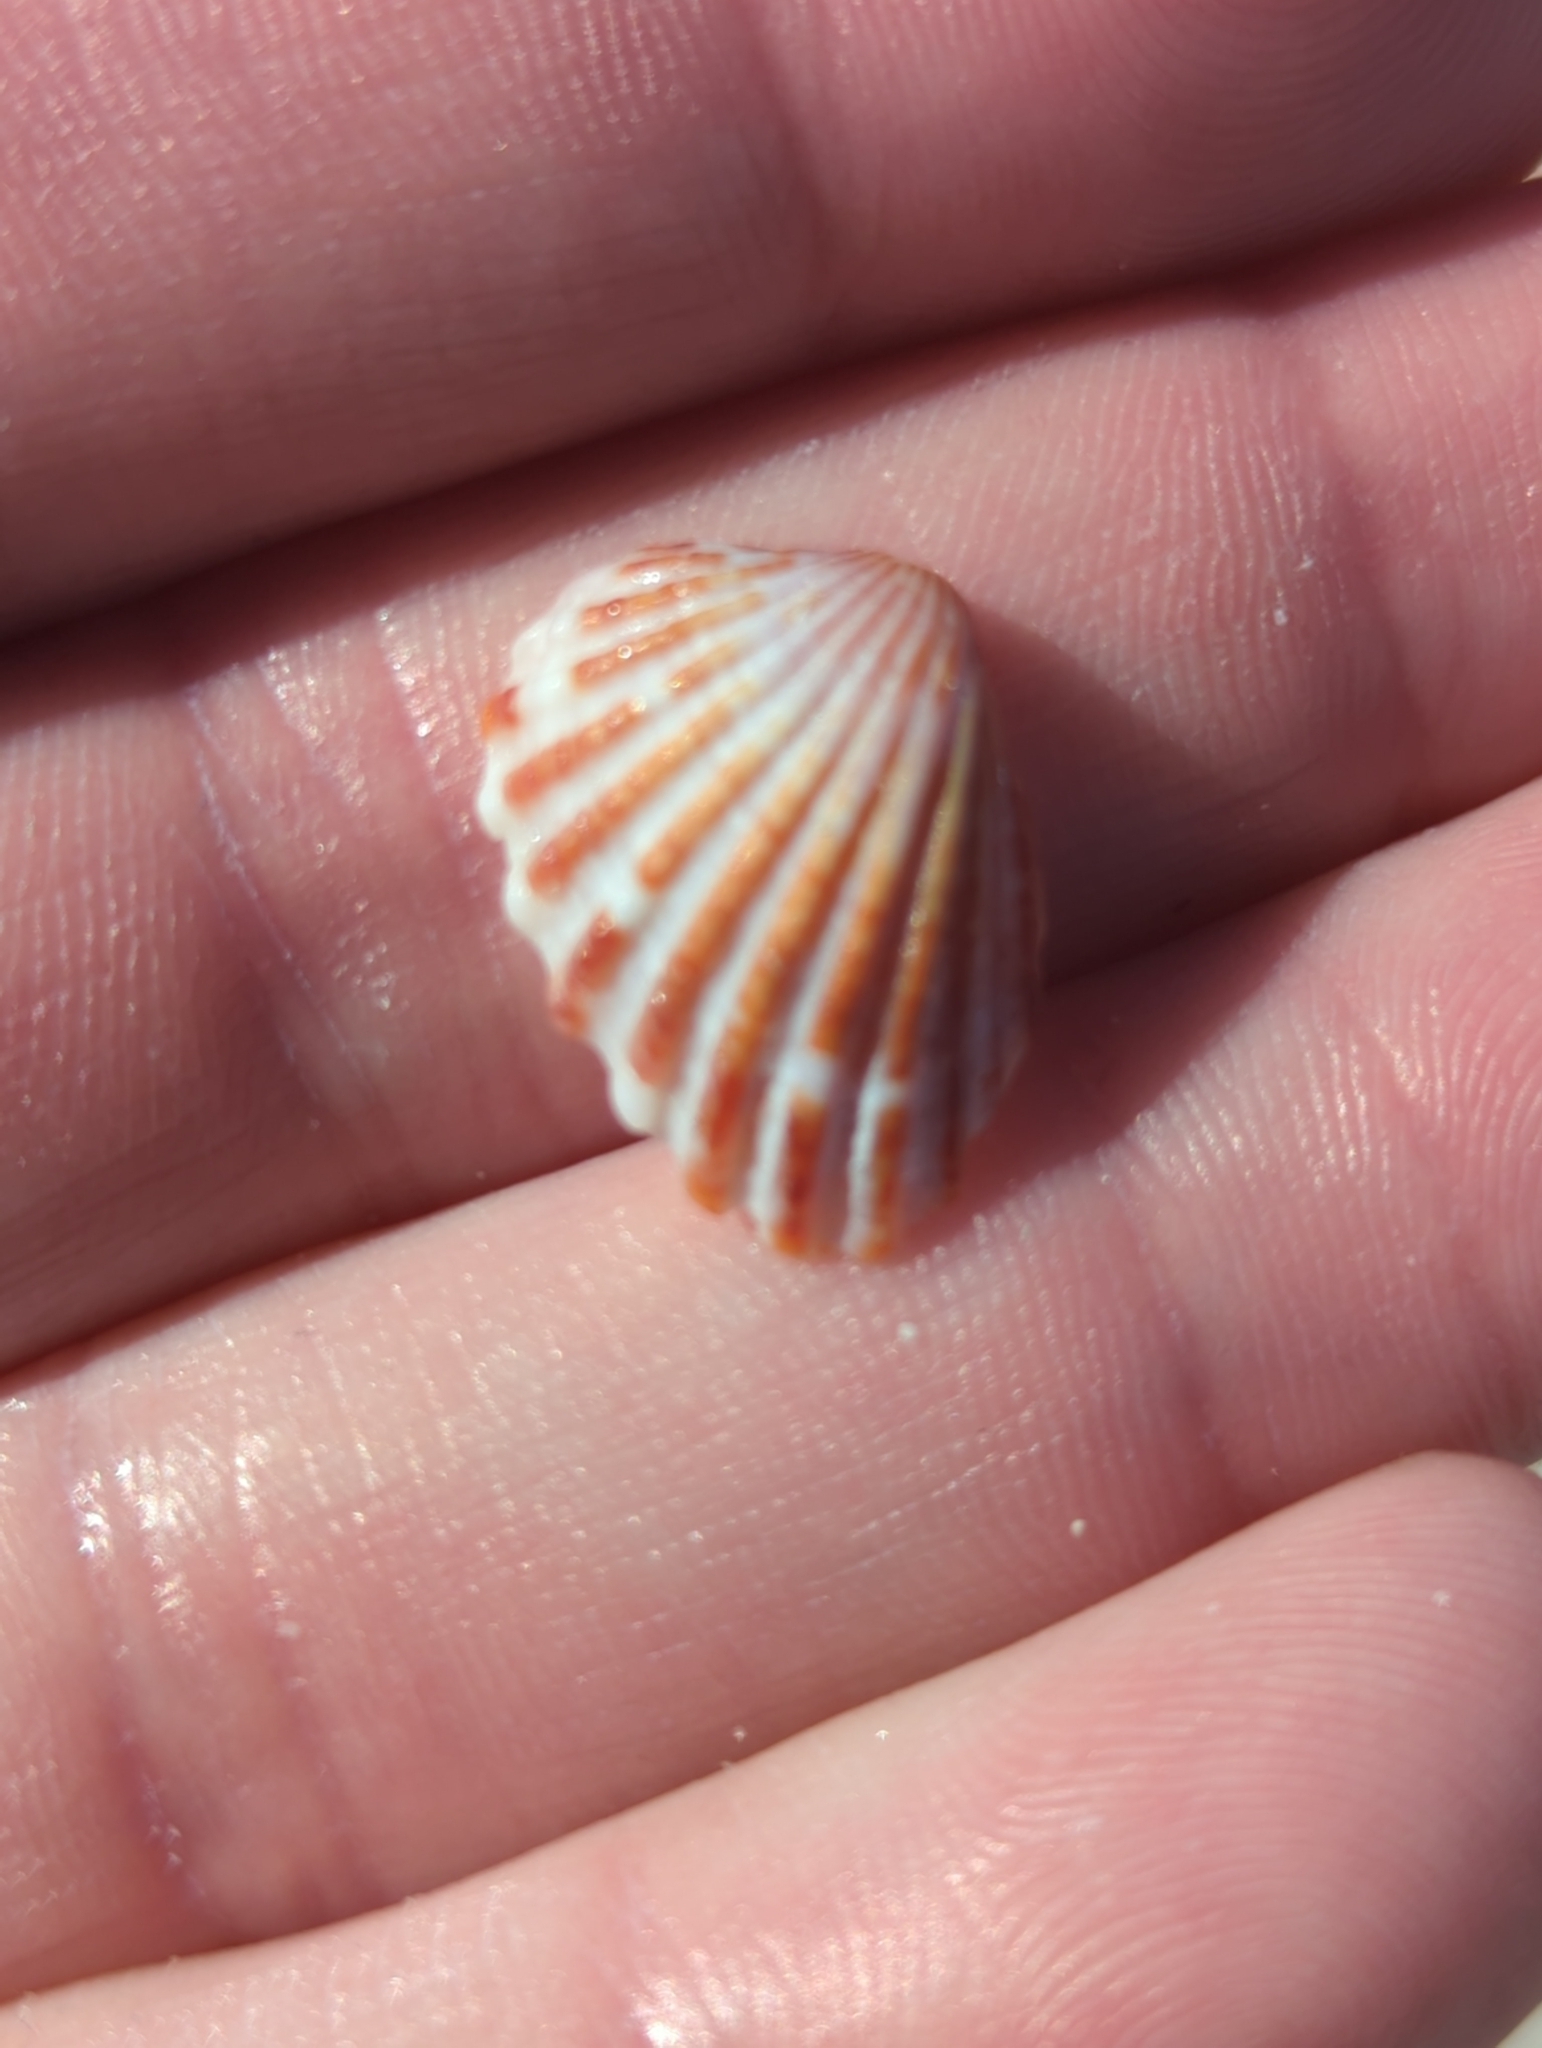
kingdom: Animalia
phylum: Mollusca
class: Bivalvia
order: Carditida
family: Carditidae
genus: Cardites
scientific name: Cardites floridanus
